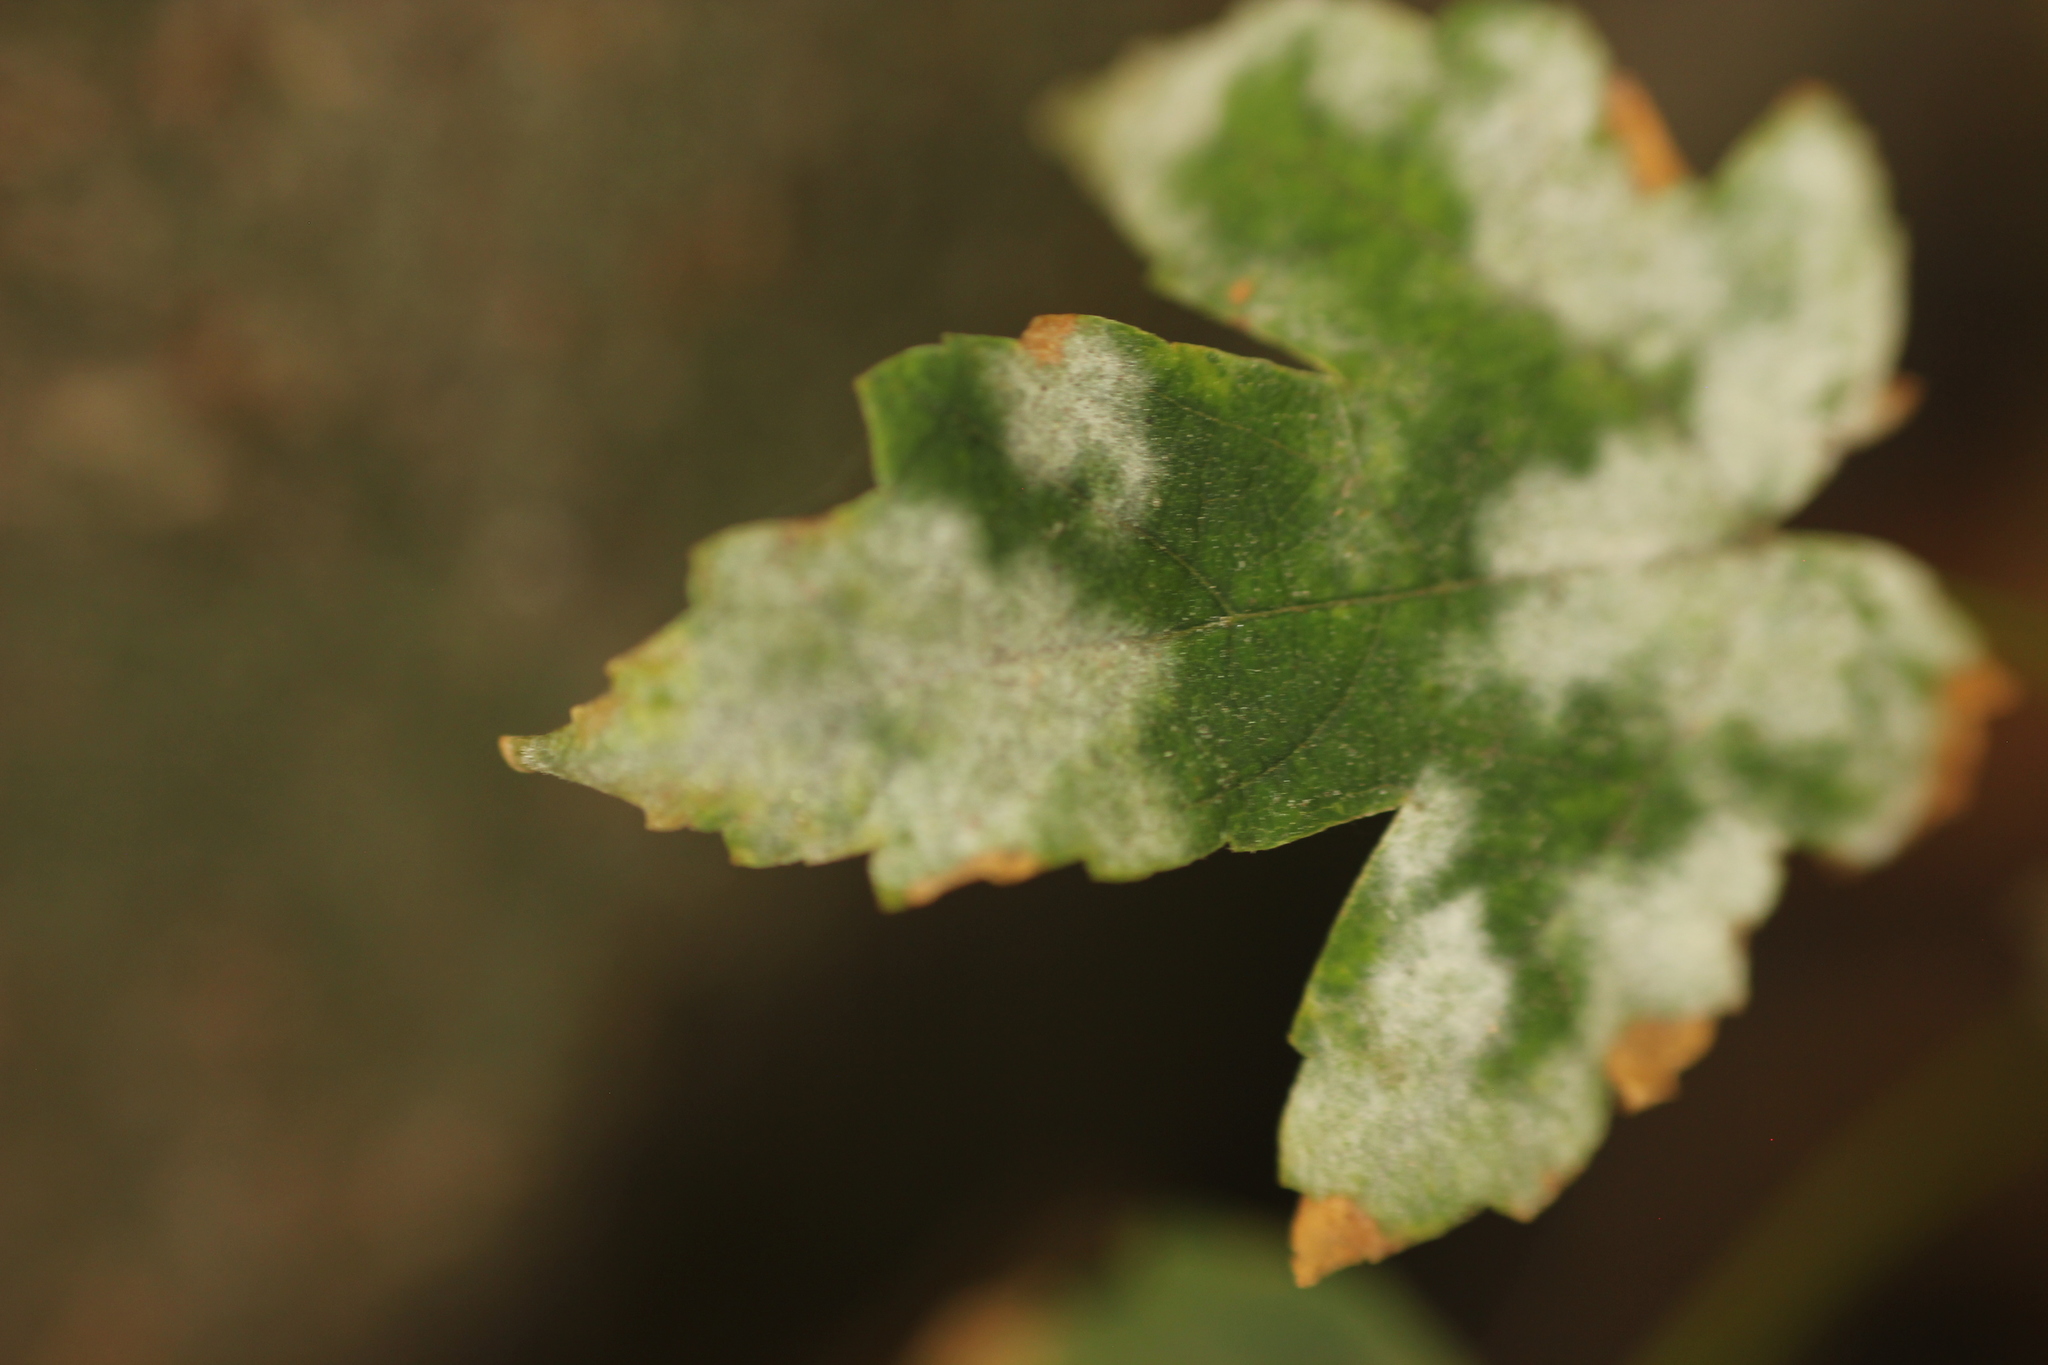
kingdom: Fungi
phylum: Ascomycota
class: Leotiomycetes
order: Helotiales
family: Erysiphaceae
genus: Sawadaea
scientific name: Sawadaea bicornis
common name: Maple mildew
